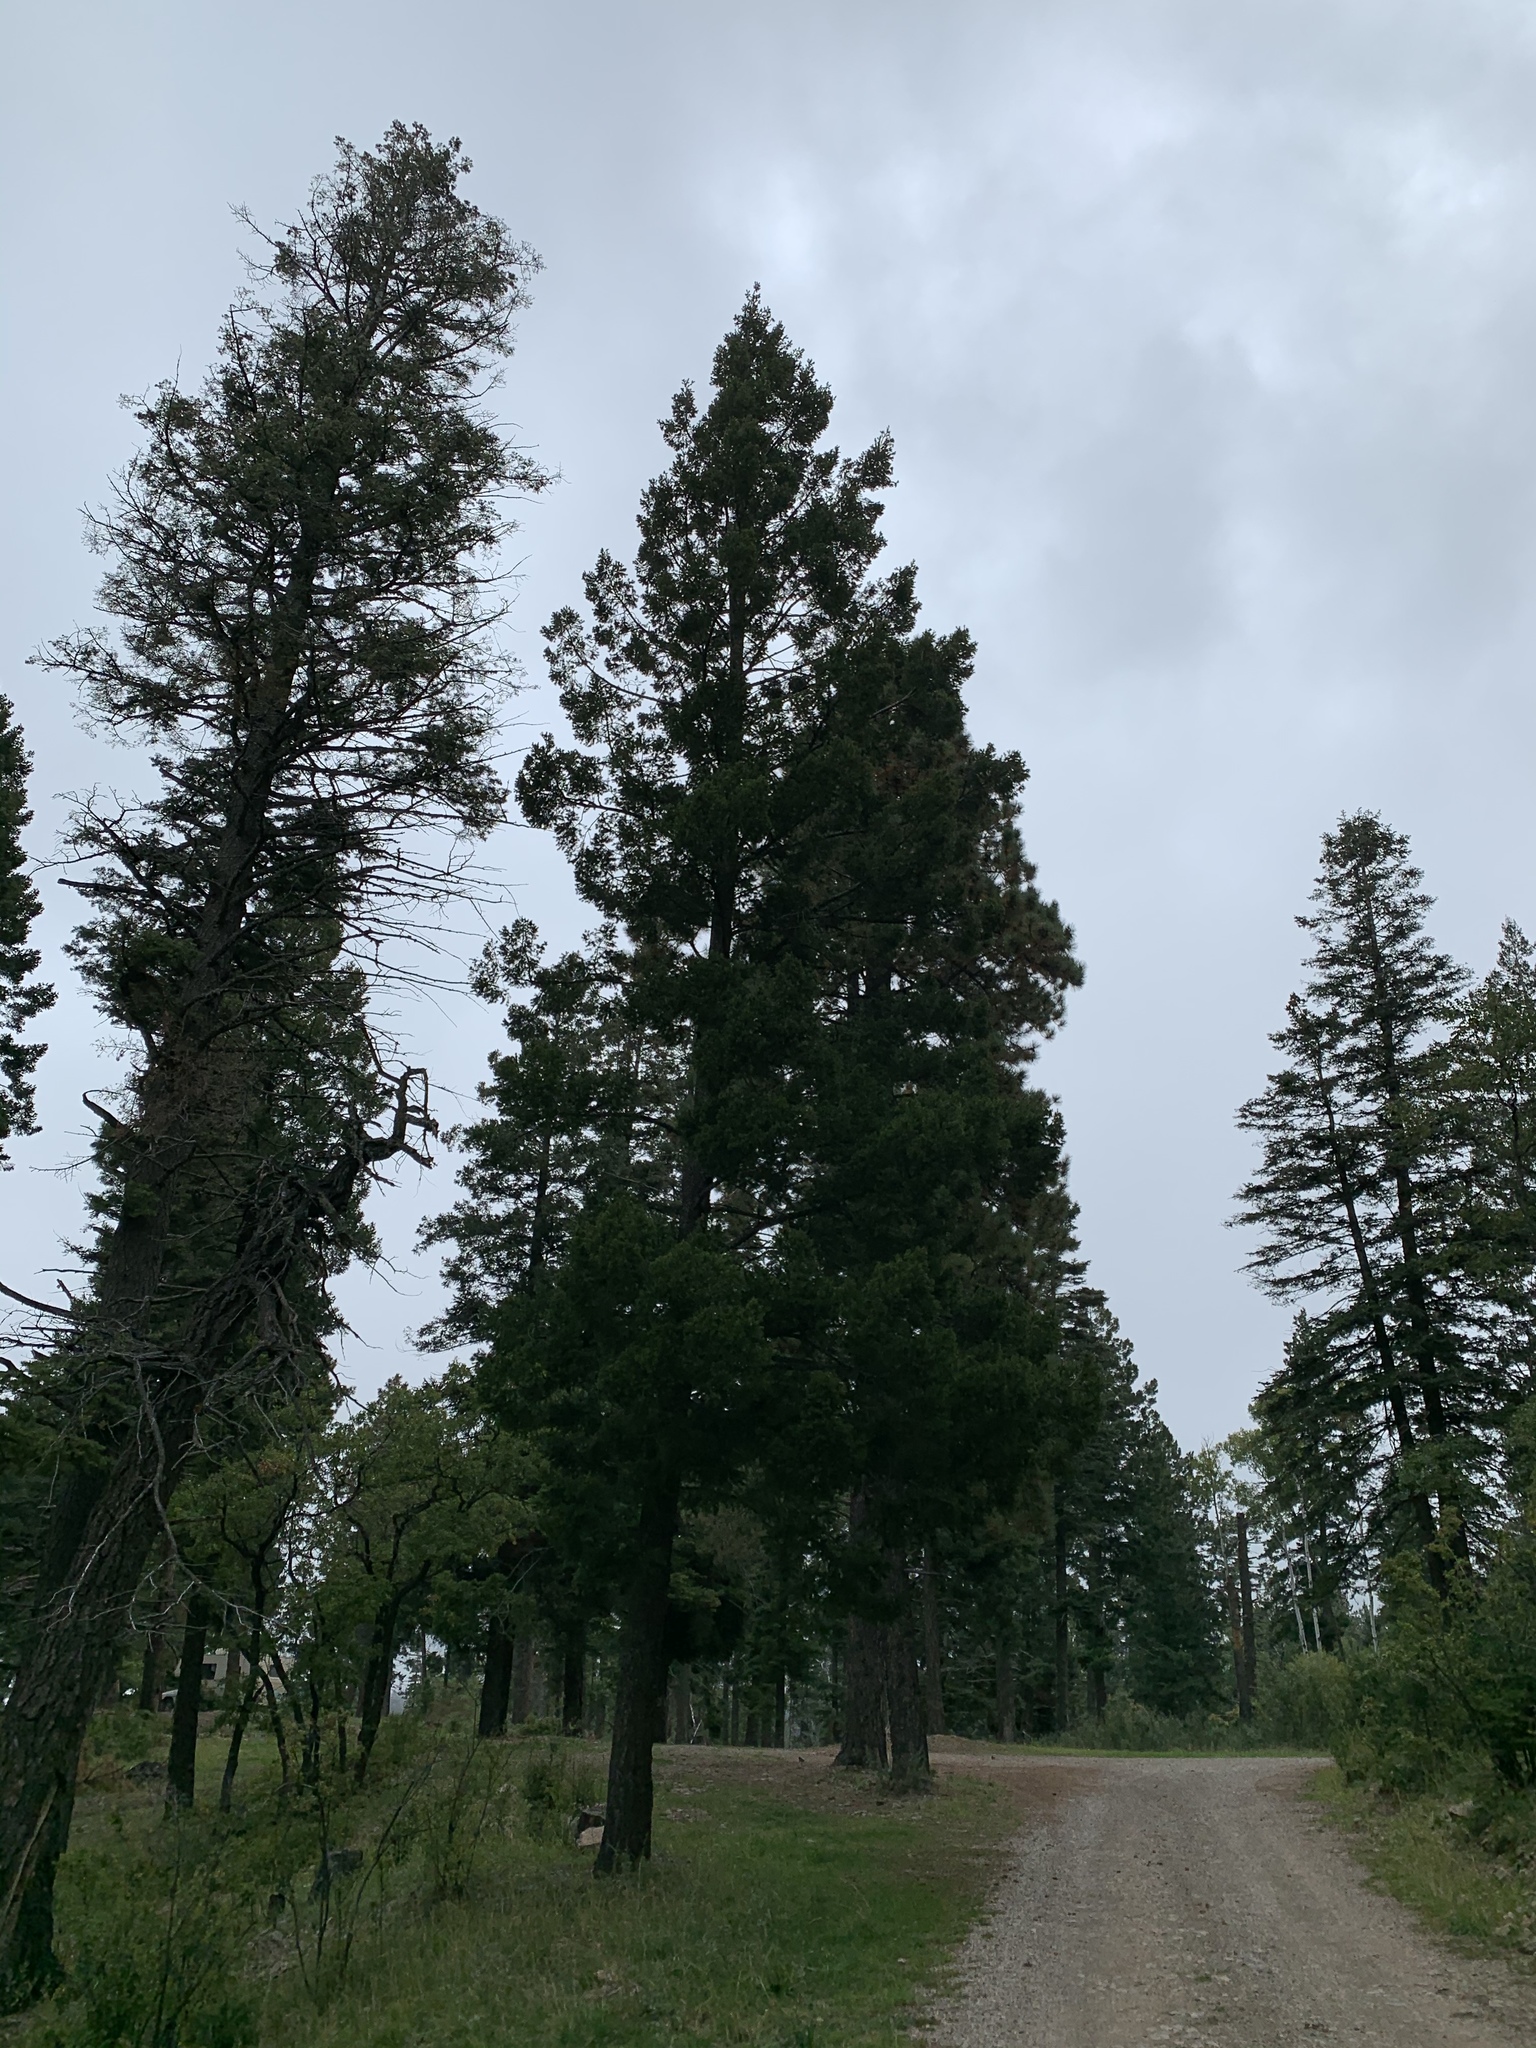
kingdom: Plantae
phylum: Tracheophyta
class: Pinopsida
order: Pinales
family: Pinaceae
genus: Pseudotsuga
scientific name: Pseudotsuga menziesii
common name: Douglas fir
